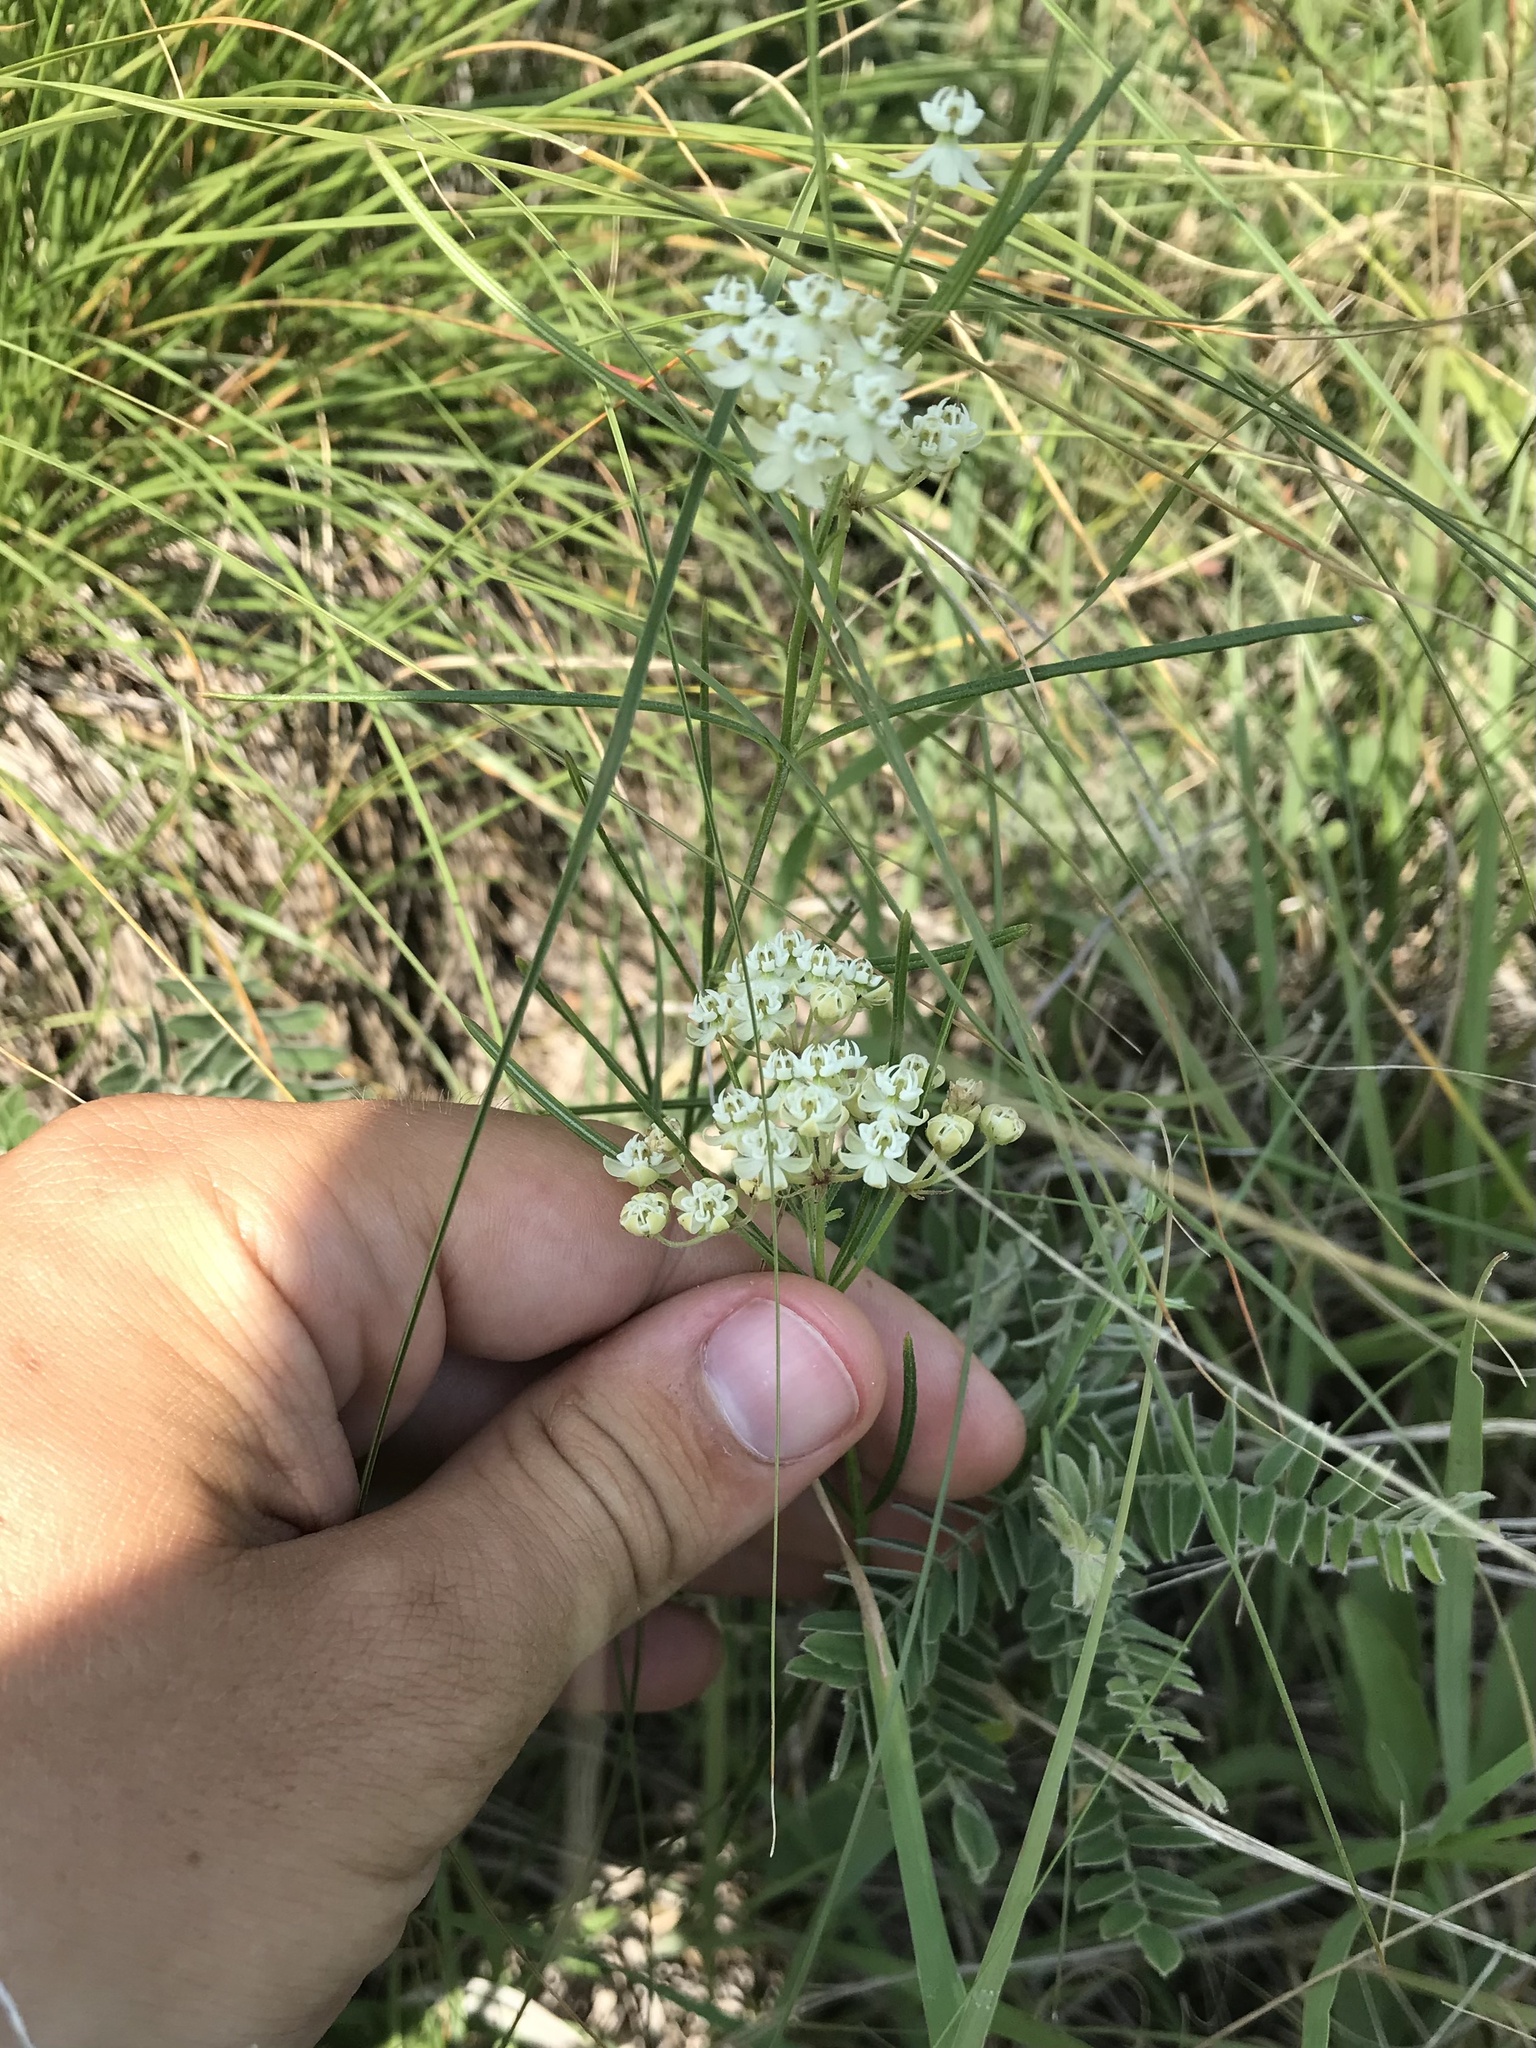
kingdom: Plantae
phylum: Tracheophyta
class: Magnoliopsida
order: Gentianales
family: Apocynaceae
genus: Asclepias
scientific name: Asclepias verticillata
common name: Eastern whorled milkweed
